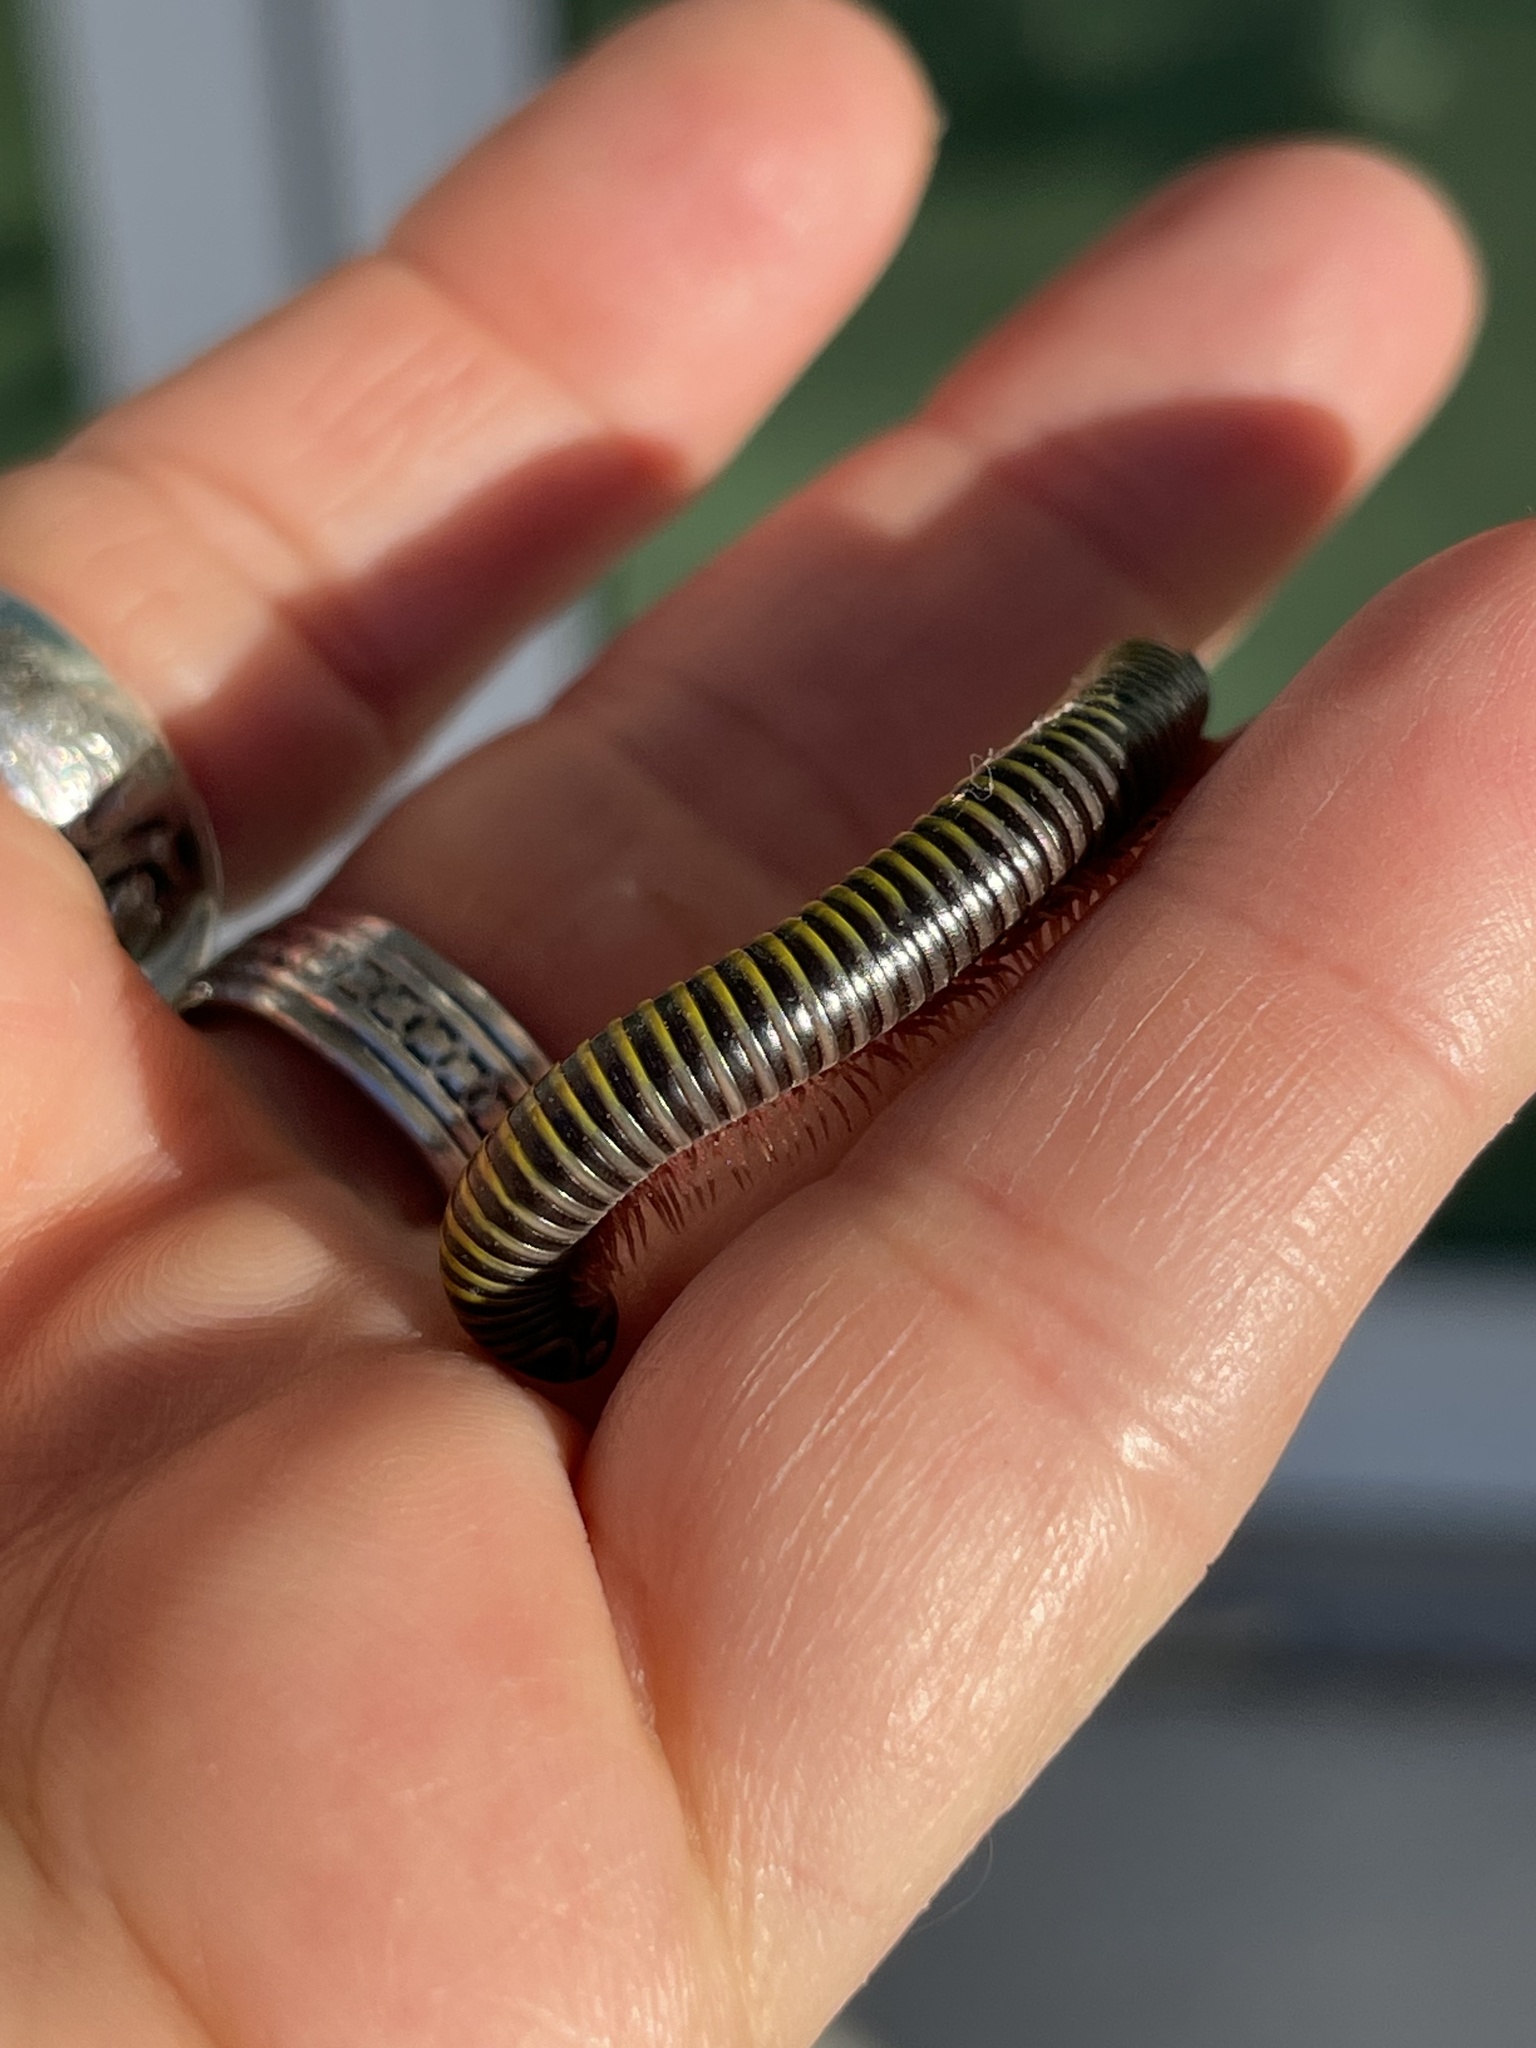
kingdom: Animalia
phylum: Arthropoda
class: Diplopoda
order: Spirobolida
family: Rhinocricidae
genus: Anadenobolus
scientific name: Anadenobolus monilicornis
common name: Caribbean millipede
